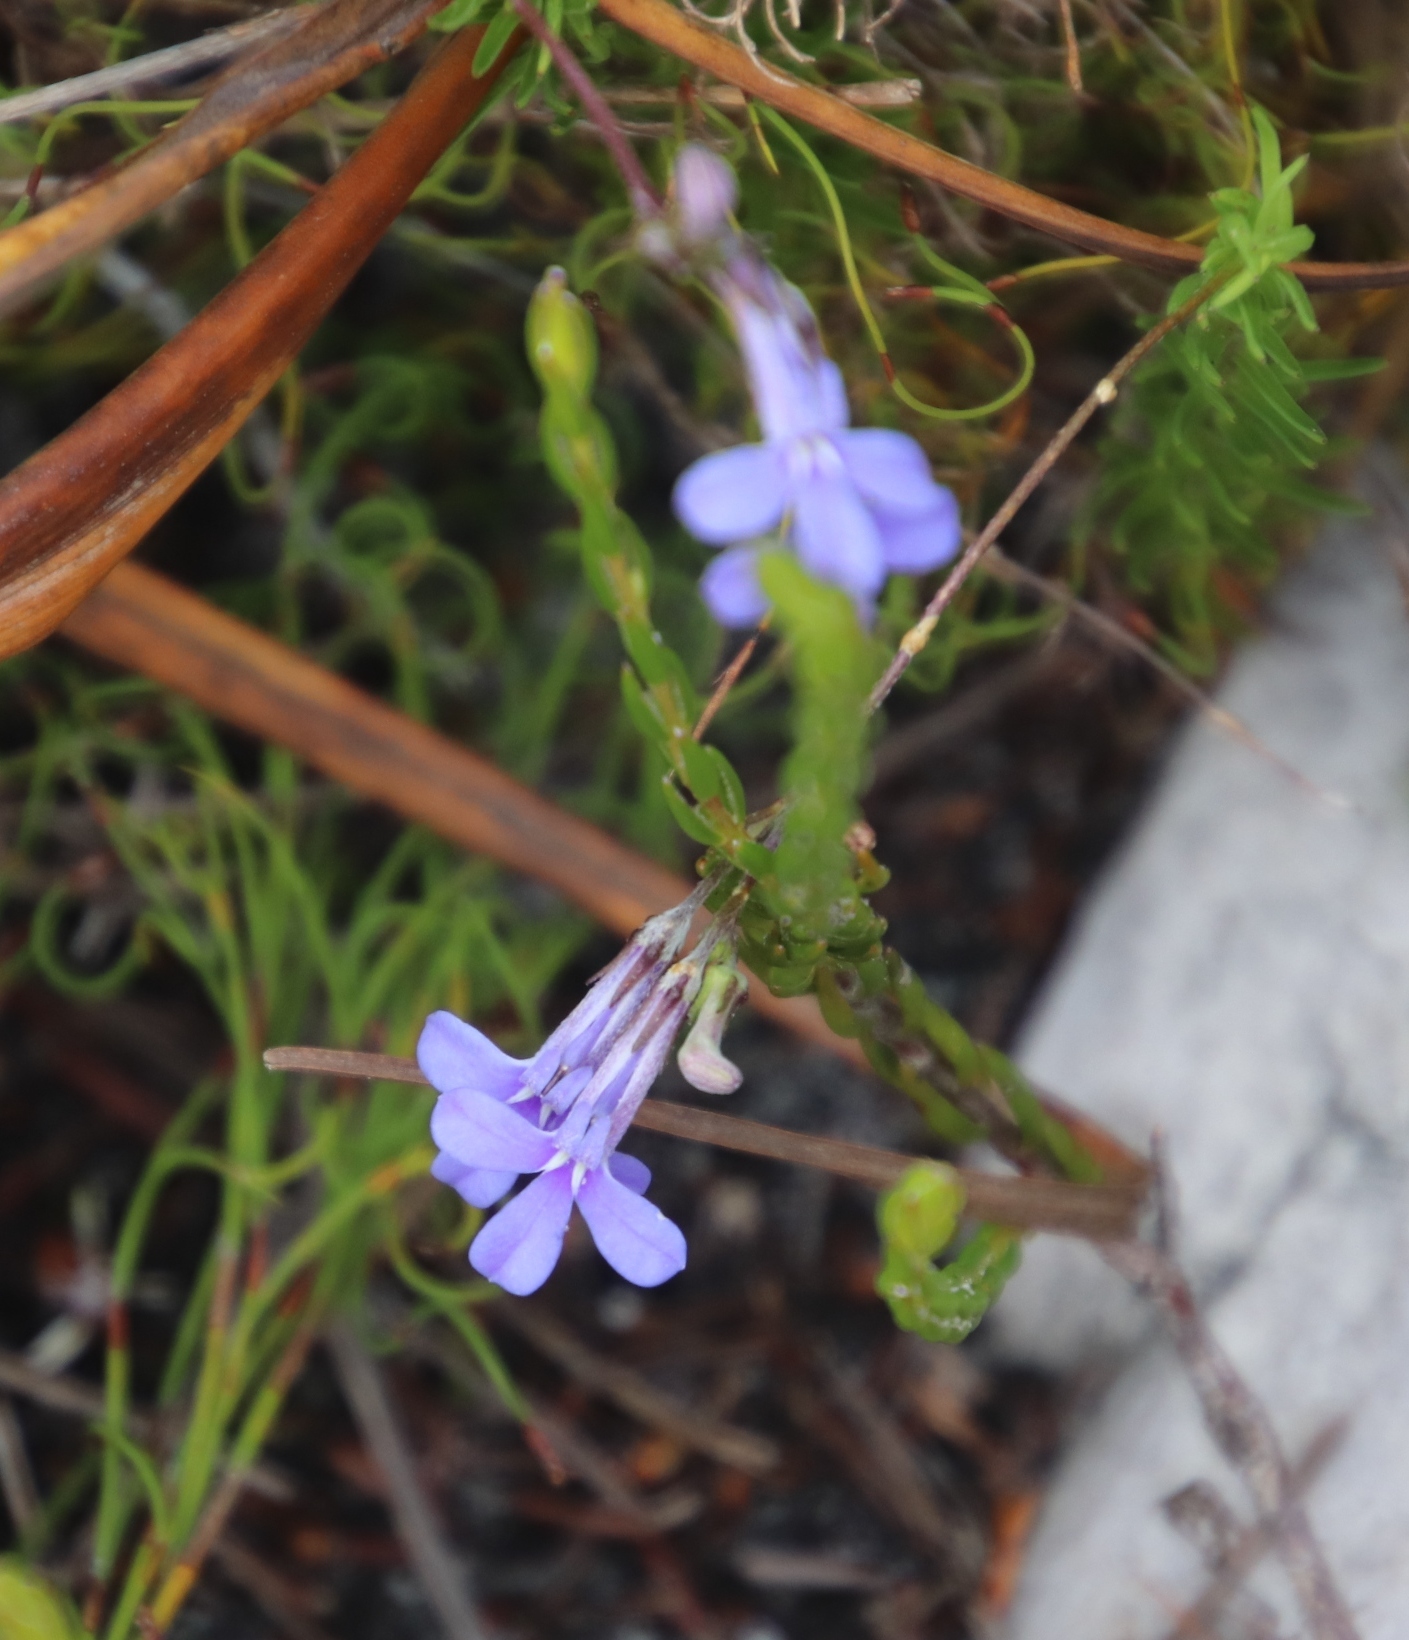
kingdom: Plantae
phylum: Tracheophyta
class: Magnoliopsida
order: Asterales
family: Campanulaceae
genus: Lobelia
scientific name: Lobelia pinifolia
